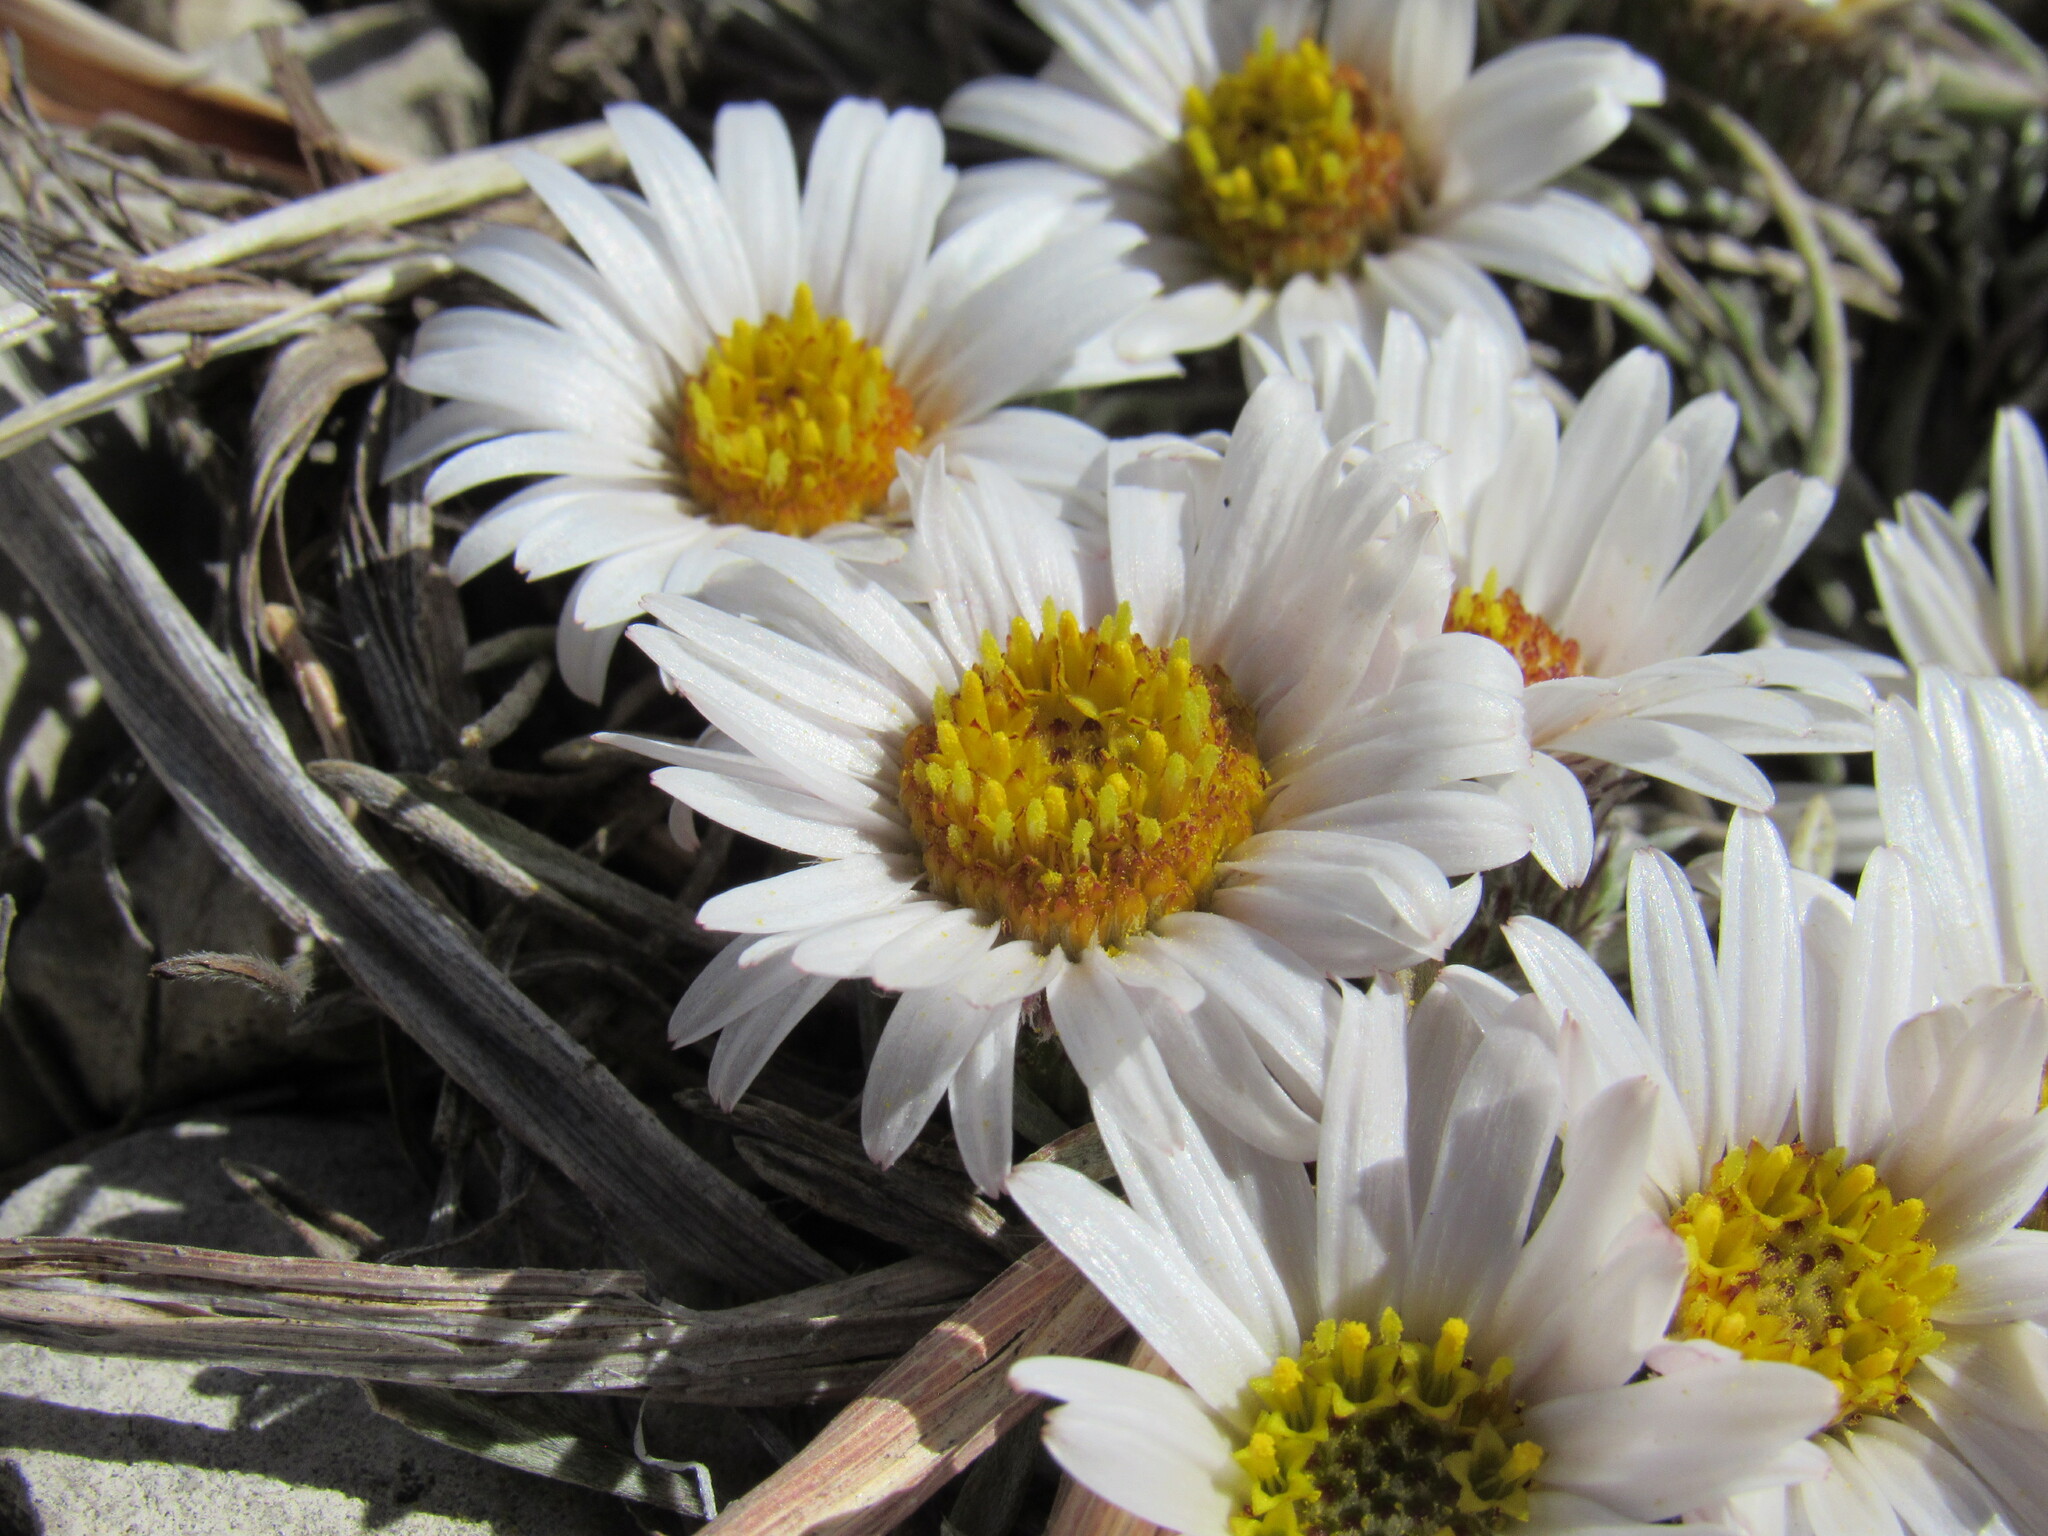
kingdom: Plantae
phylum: Tracheophyta
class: Magnoliopsida
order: Asterales
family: Asteraceae
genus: Townsendia
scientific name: Townsendia hookeri
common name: Hooker's townsend daisy
